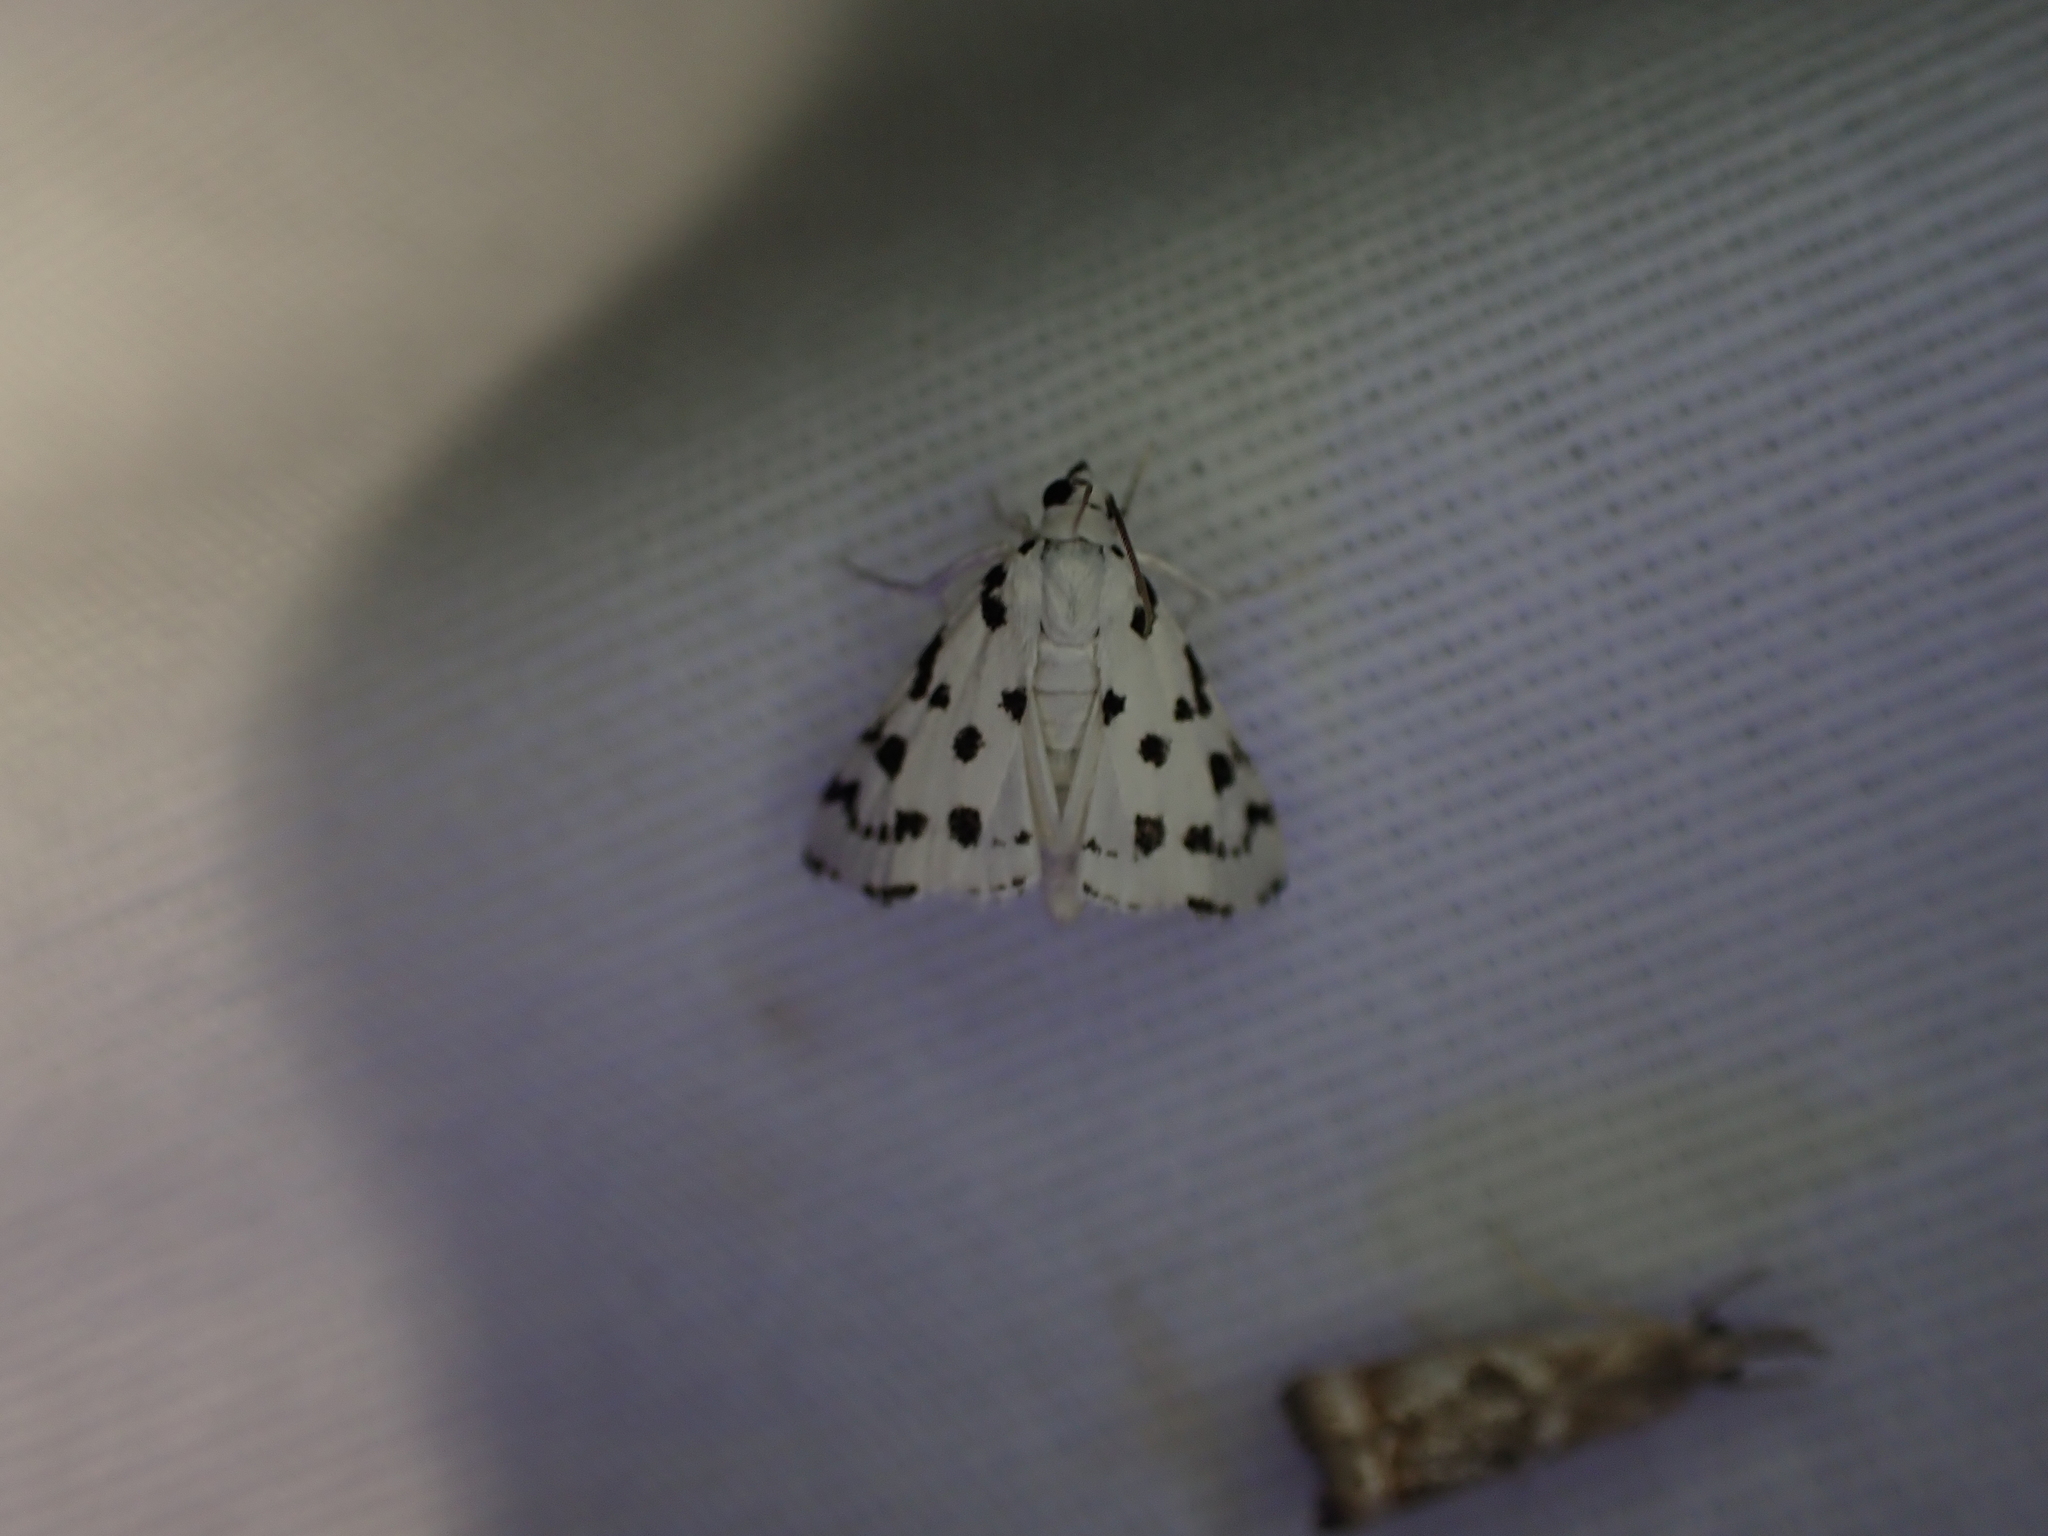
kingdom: Animalia
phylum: Arthropoda
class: Insecta
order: Lepidoptera
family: Crambidae
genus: Eustixia
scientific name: Eustixia pupula
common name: American cabbage pearl
